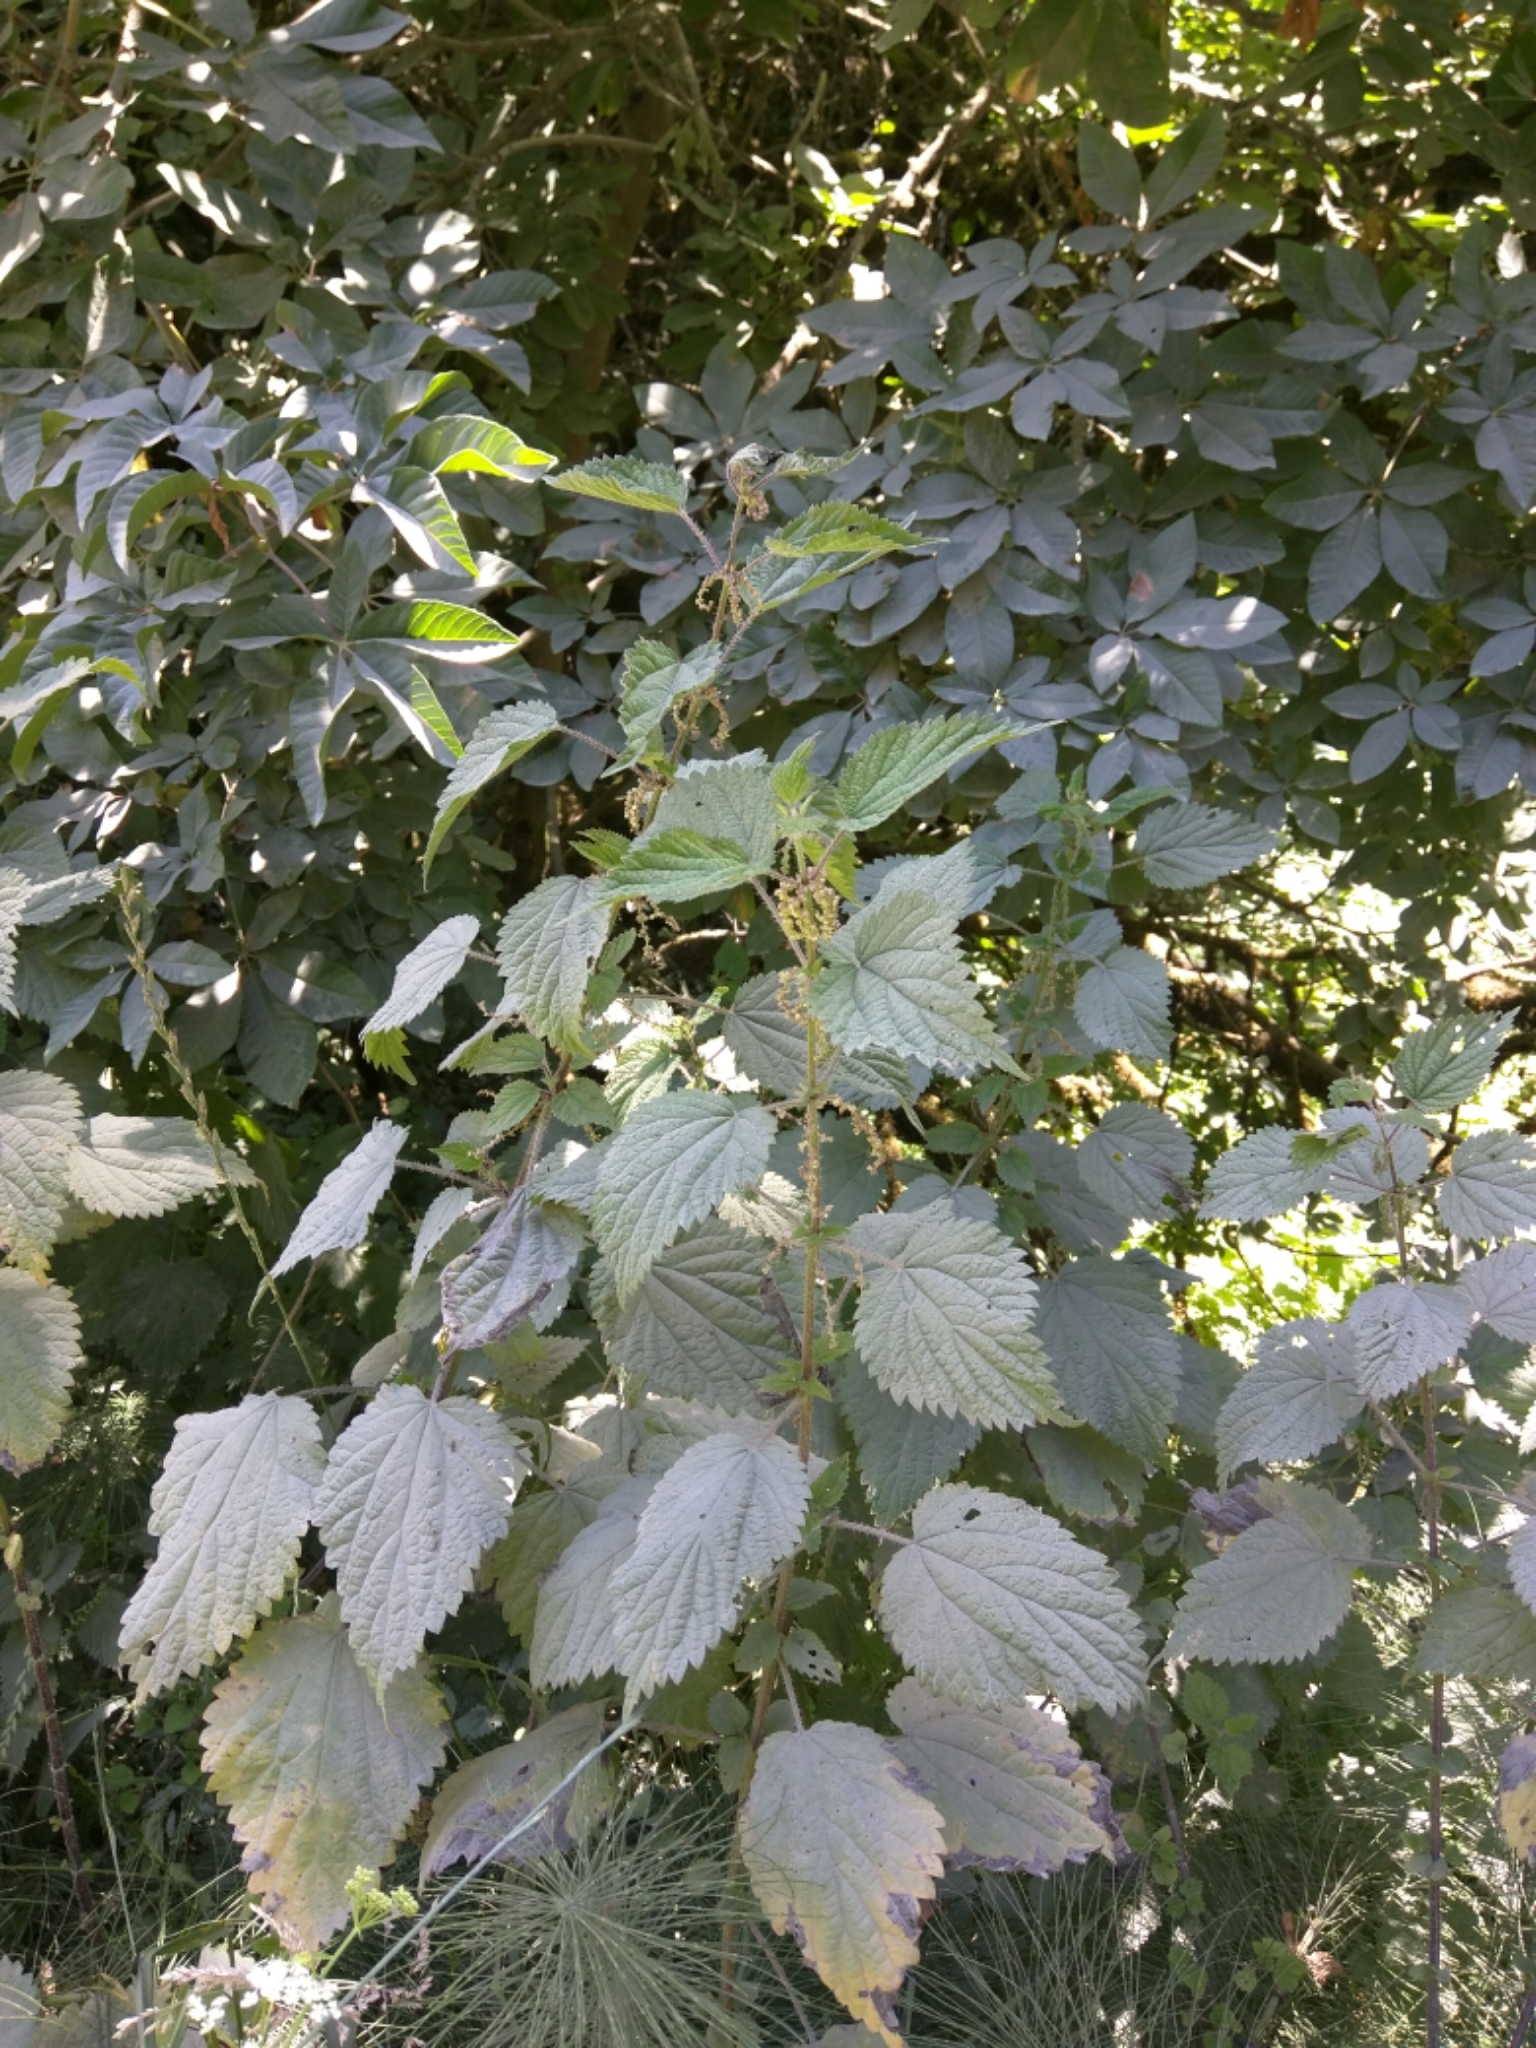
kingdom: Plantae
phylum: Tracheophyta
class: Magnoliopsida
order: Rosales
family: Urticaceae
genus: Urtica
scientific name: Urtica dioica
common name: Common nettle
